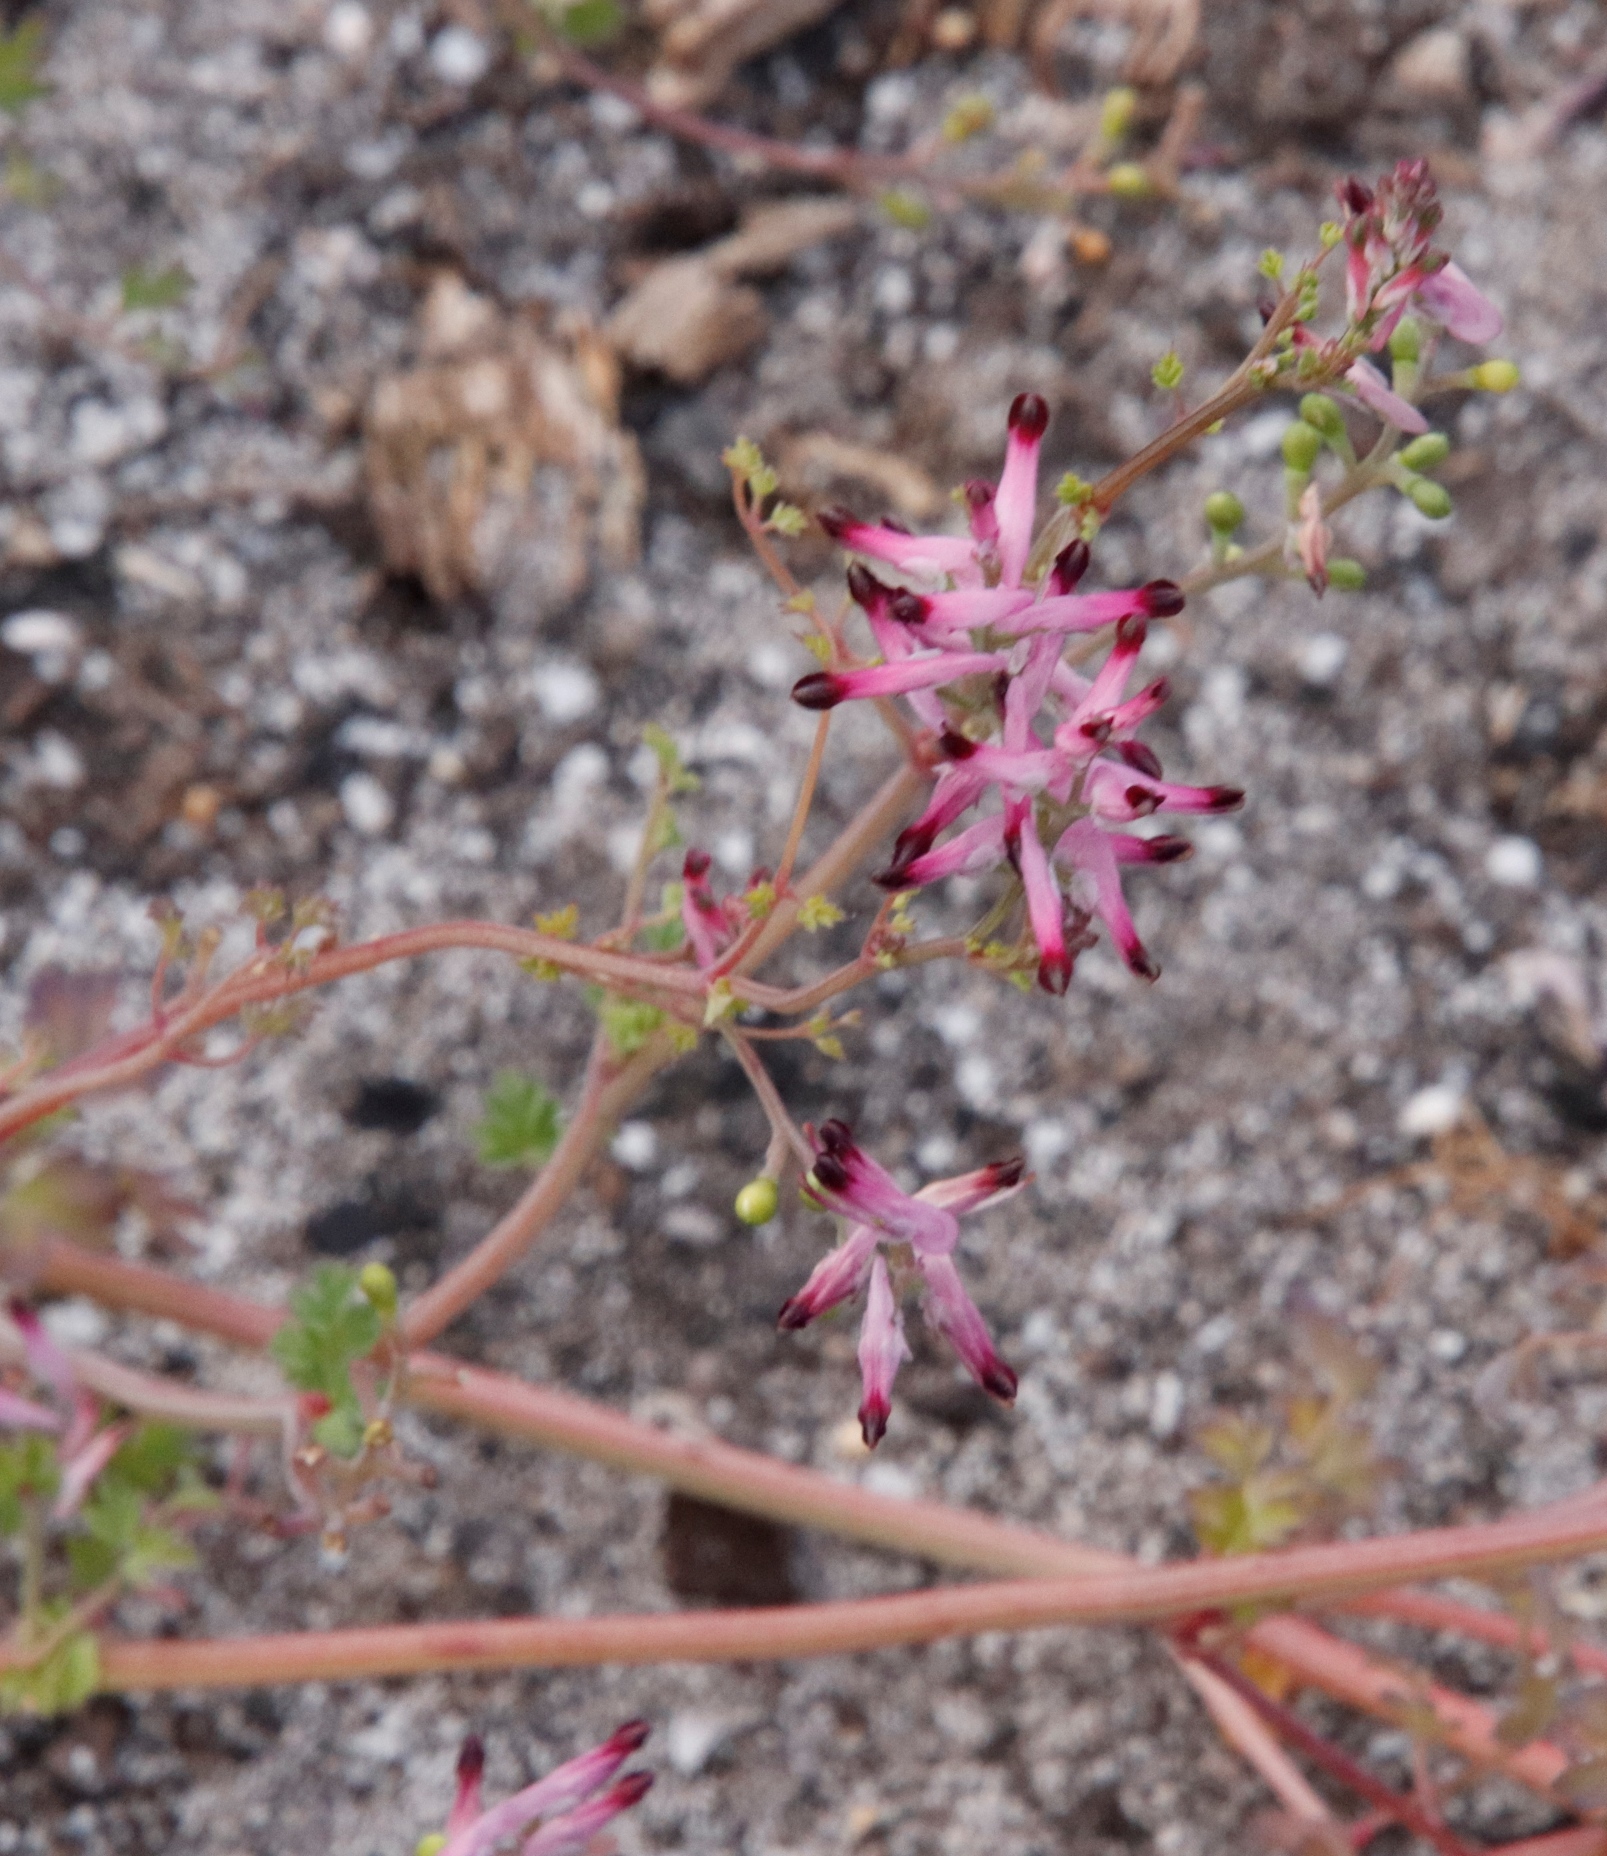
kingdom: Plantae
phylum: Tracheophyta
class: Magnoliopsida
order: Ranunculales
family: Papaveraceae
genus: Fumaria
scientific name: Fumaria muralis
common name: Common ramping-fumitory
